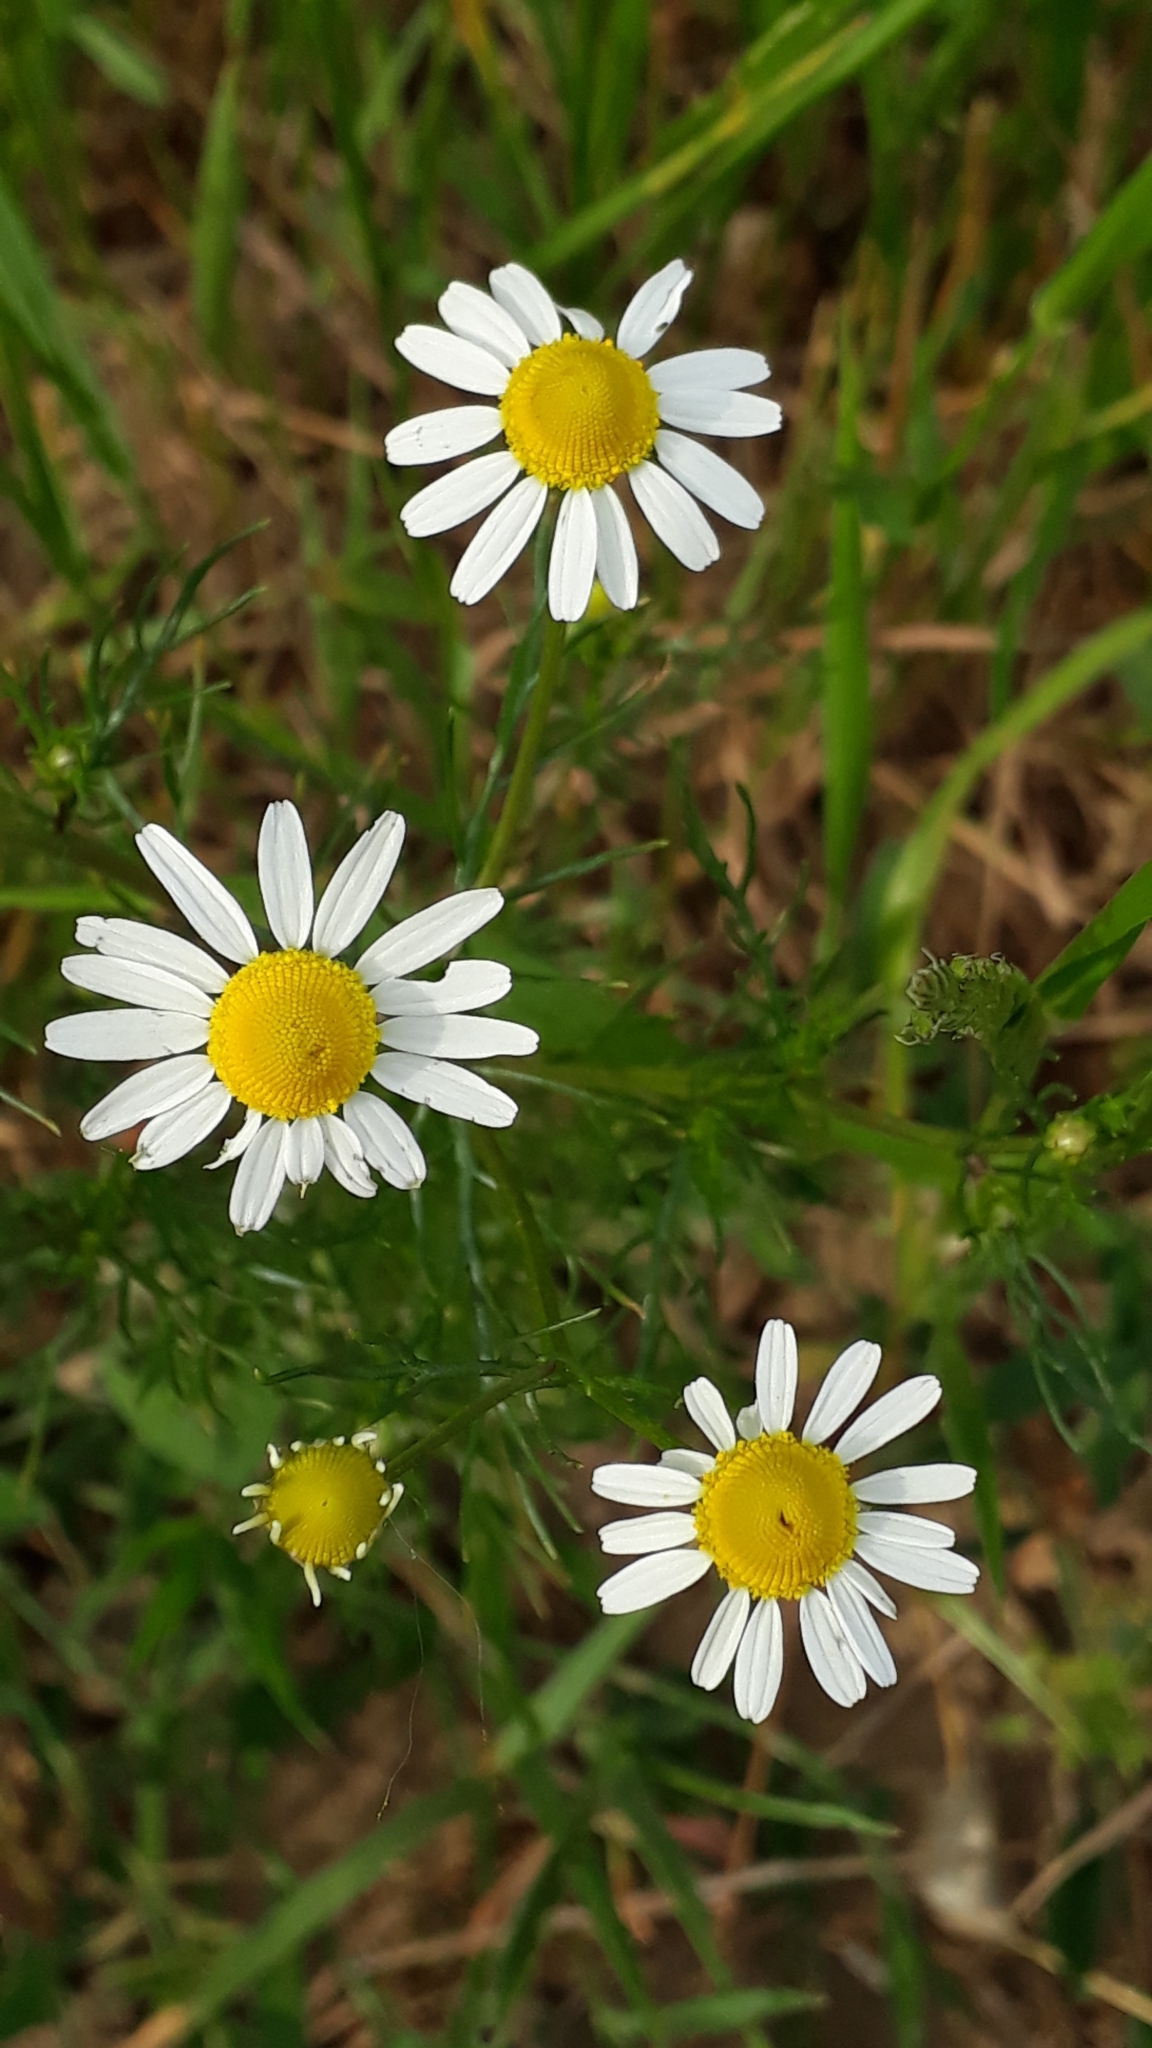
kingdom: Plantae
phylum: Tracheophyta
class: Magnoliopsida
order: Asterales
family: Asteraceae
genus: Matricaria
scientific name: Matricaria chamomilla
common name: Scented mayweed
